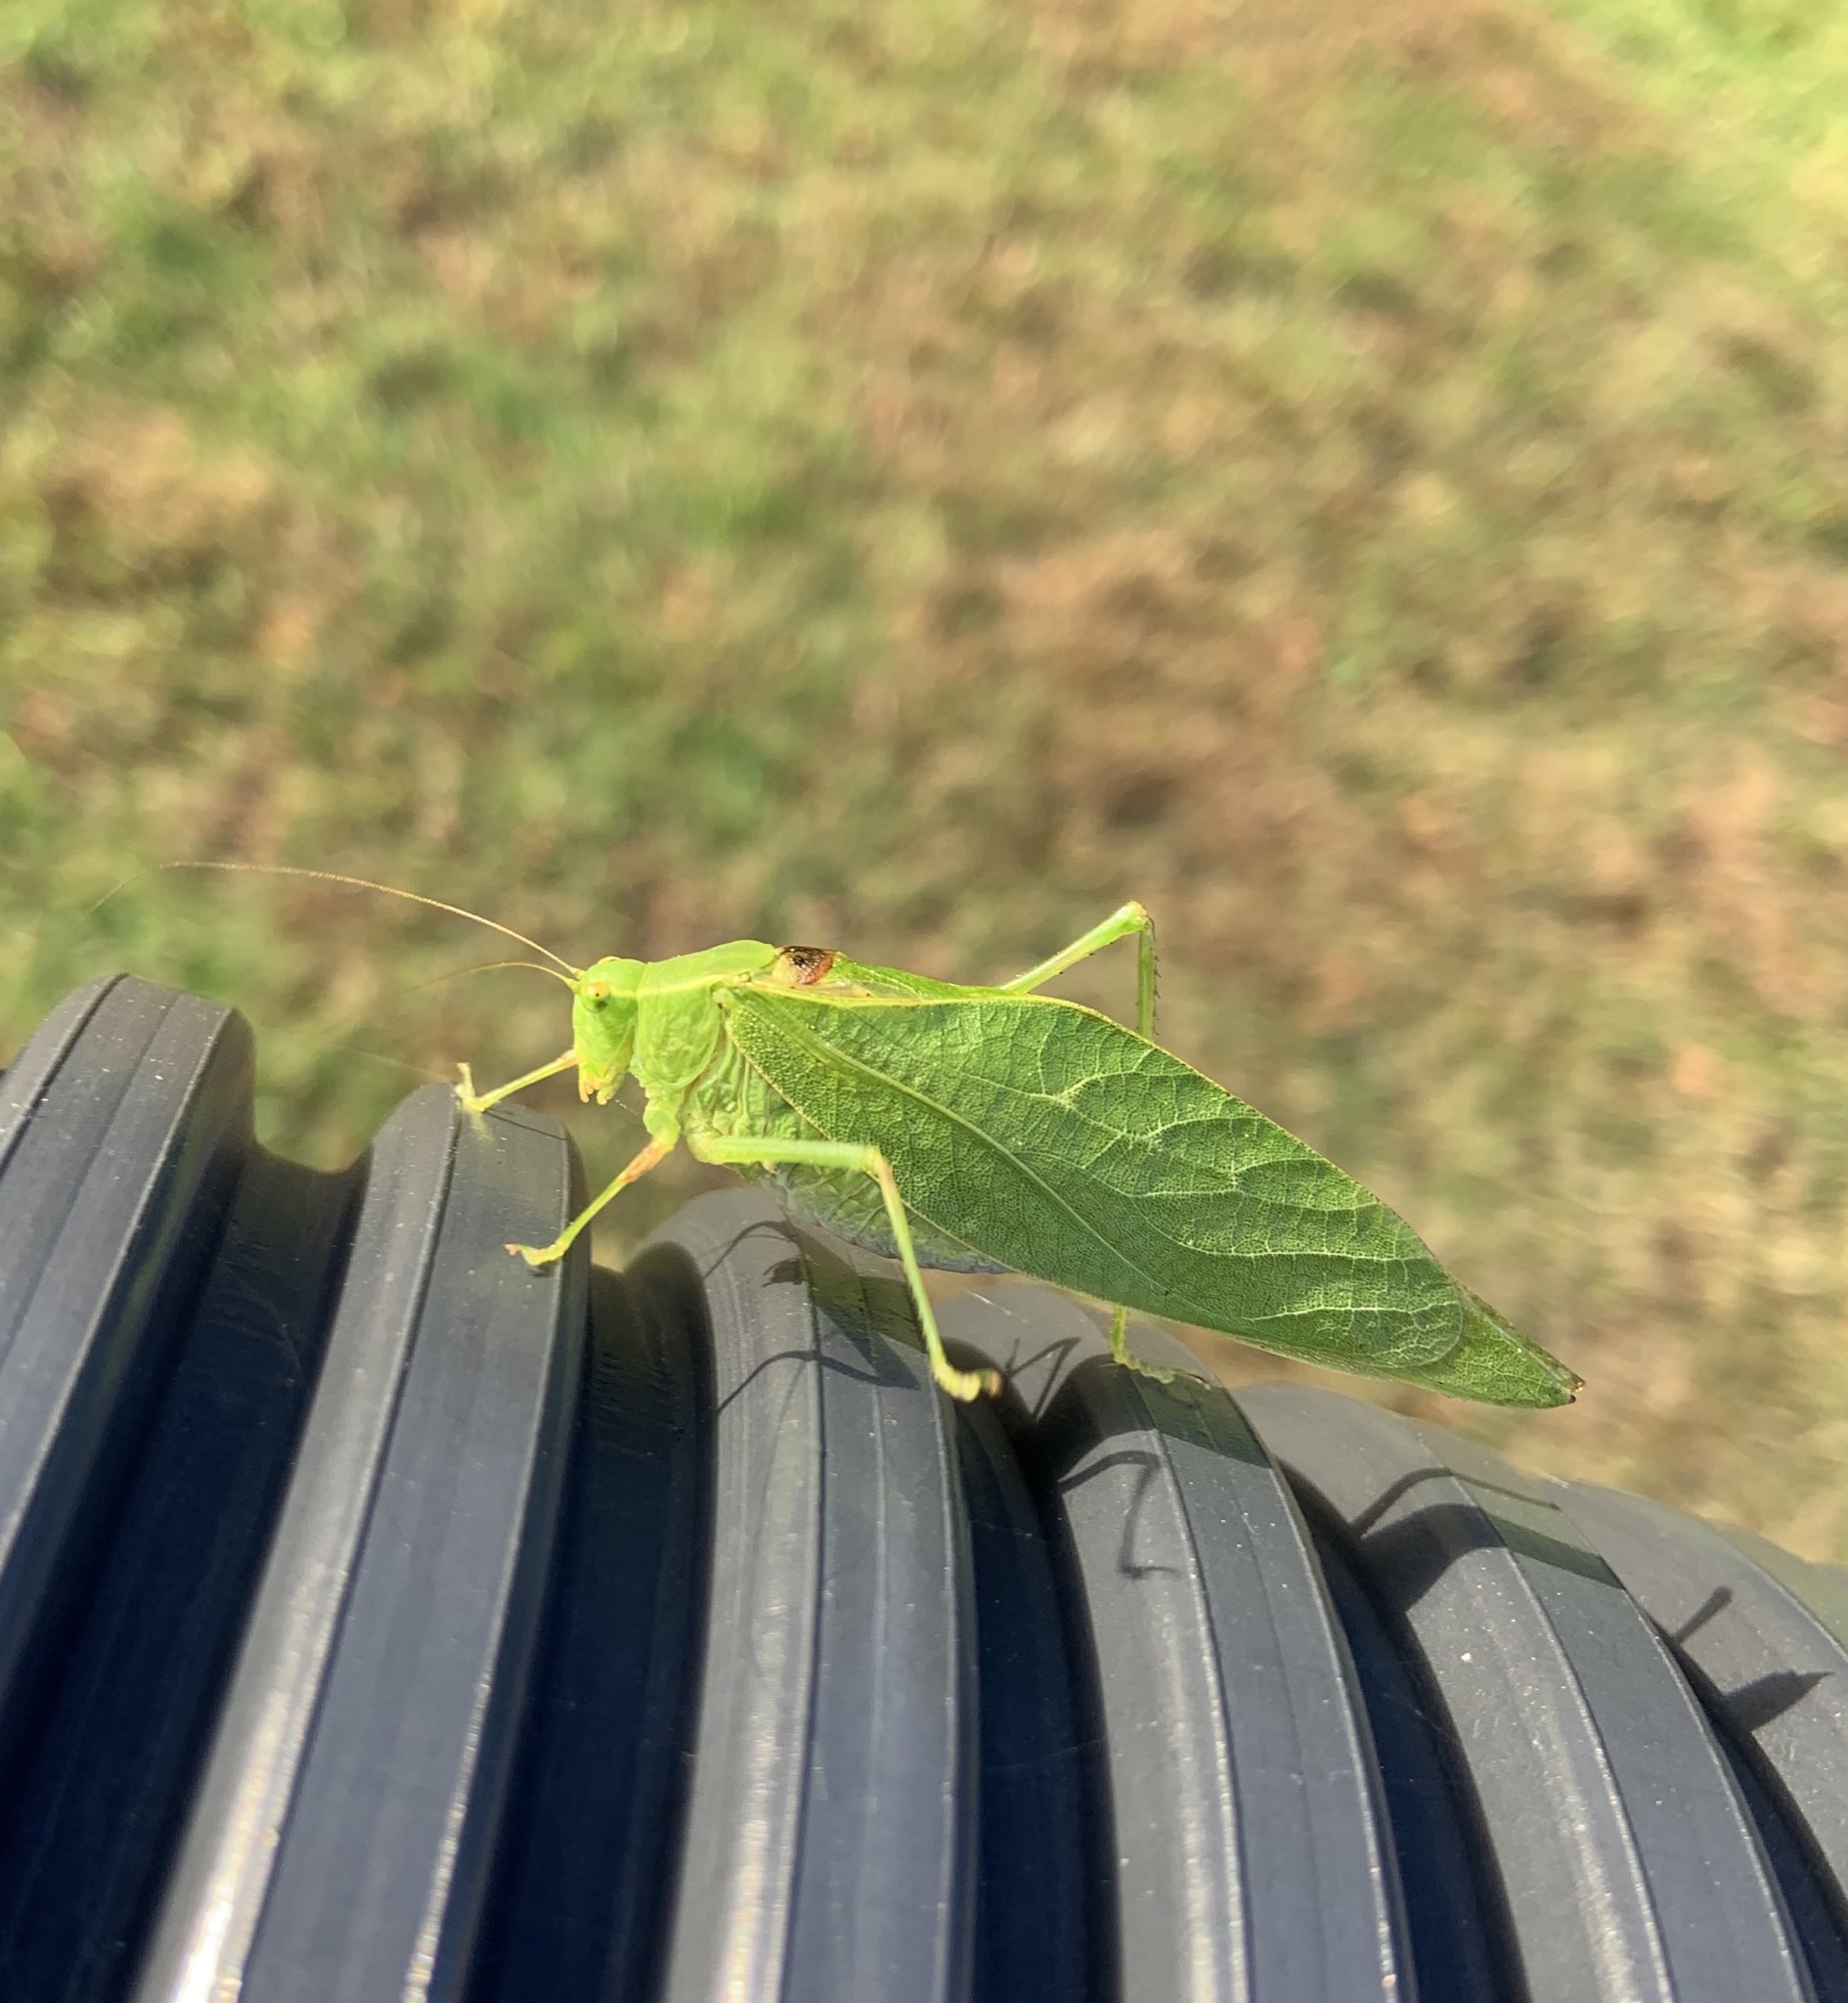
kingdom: Animalia
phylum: Arthropoda
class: Insecta
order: Orthoptera
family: Tettigoniidae
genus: Microcentrum
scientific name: Microcentrum retinerve
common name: Angular-winged katydid
